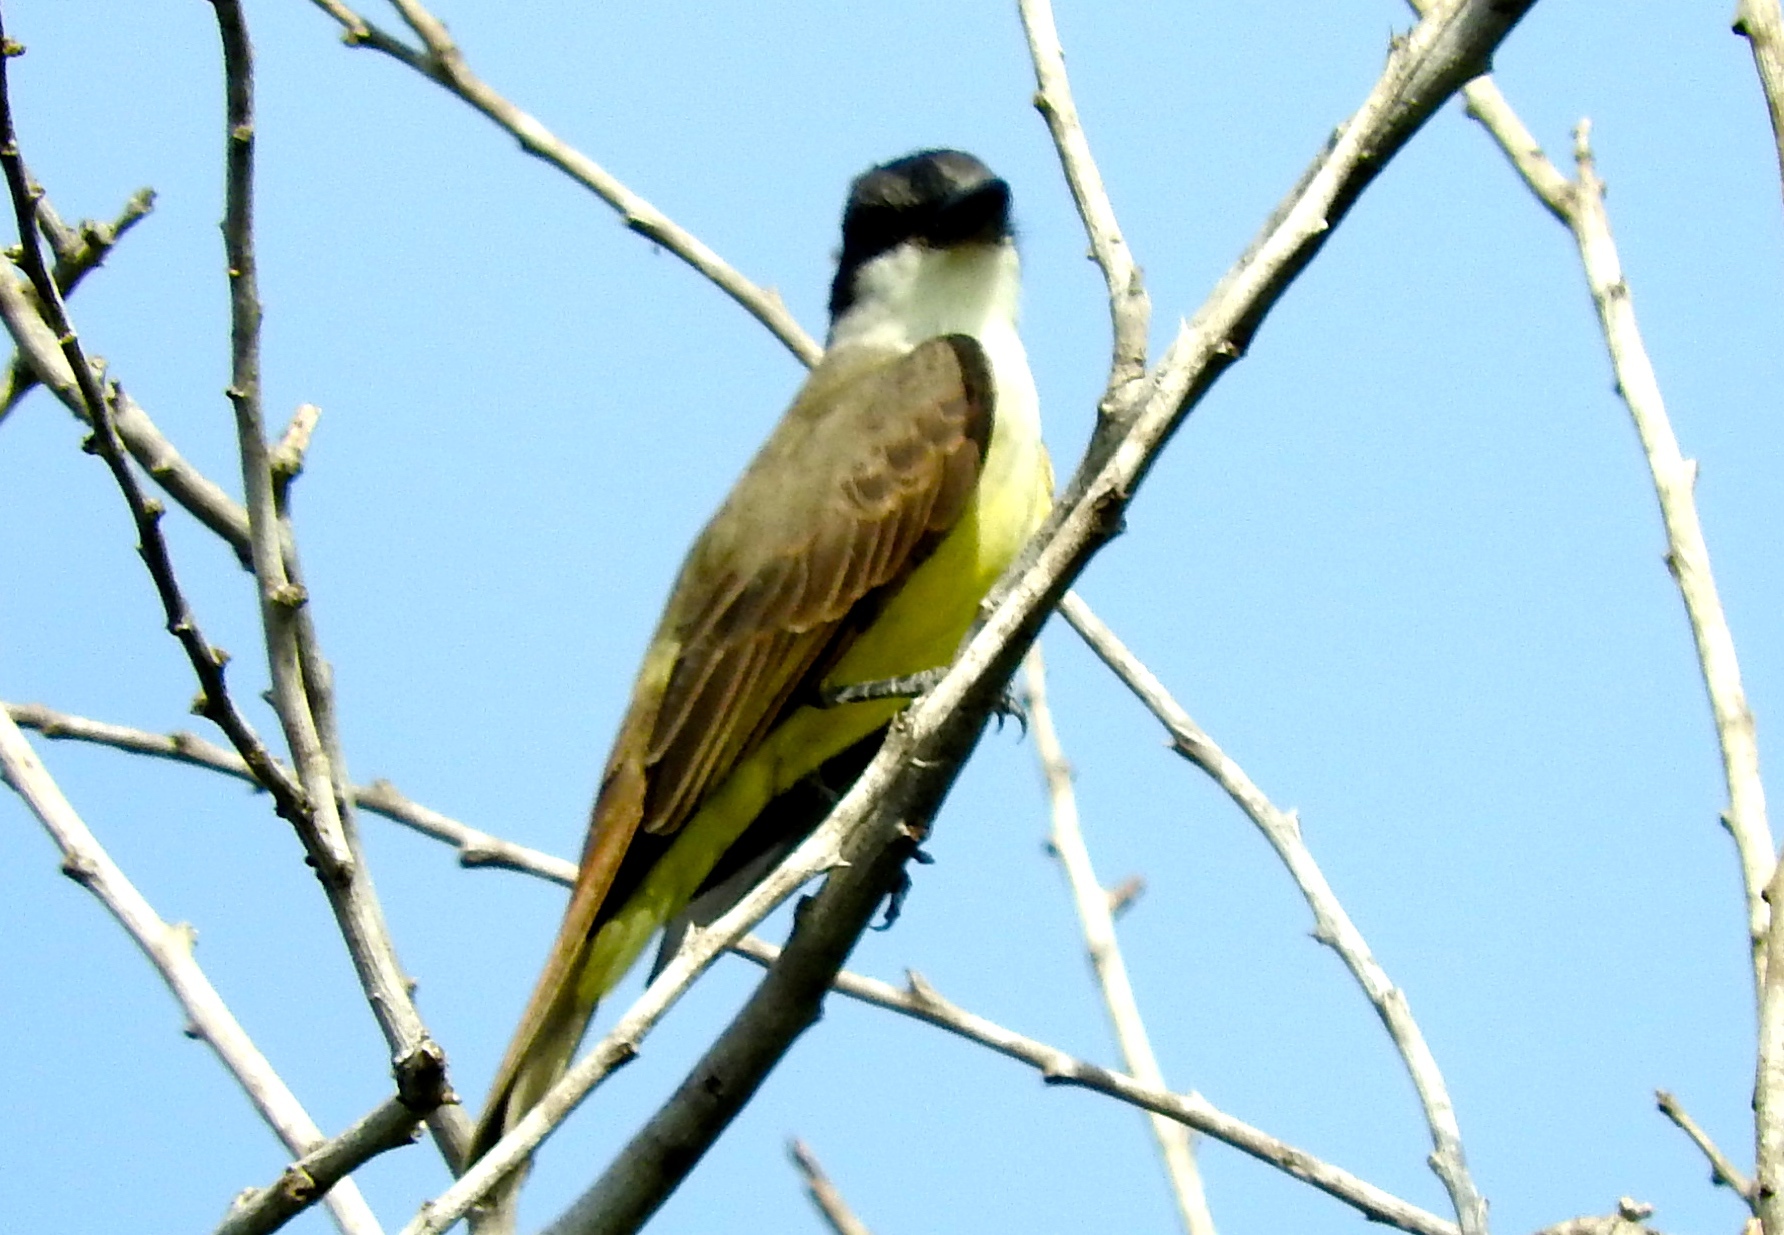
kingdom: Animalia
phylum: Chordata
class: Aves
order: Passeriformes
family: Tyrannidae
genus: Tyrannus
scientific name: Tyrannus crassirostris
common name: Thick-billed kingbird
